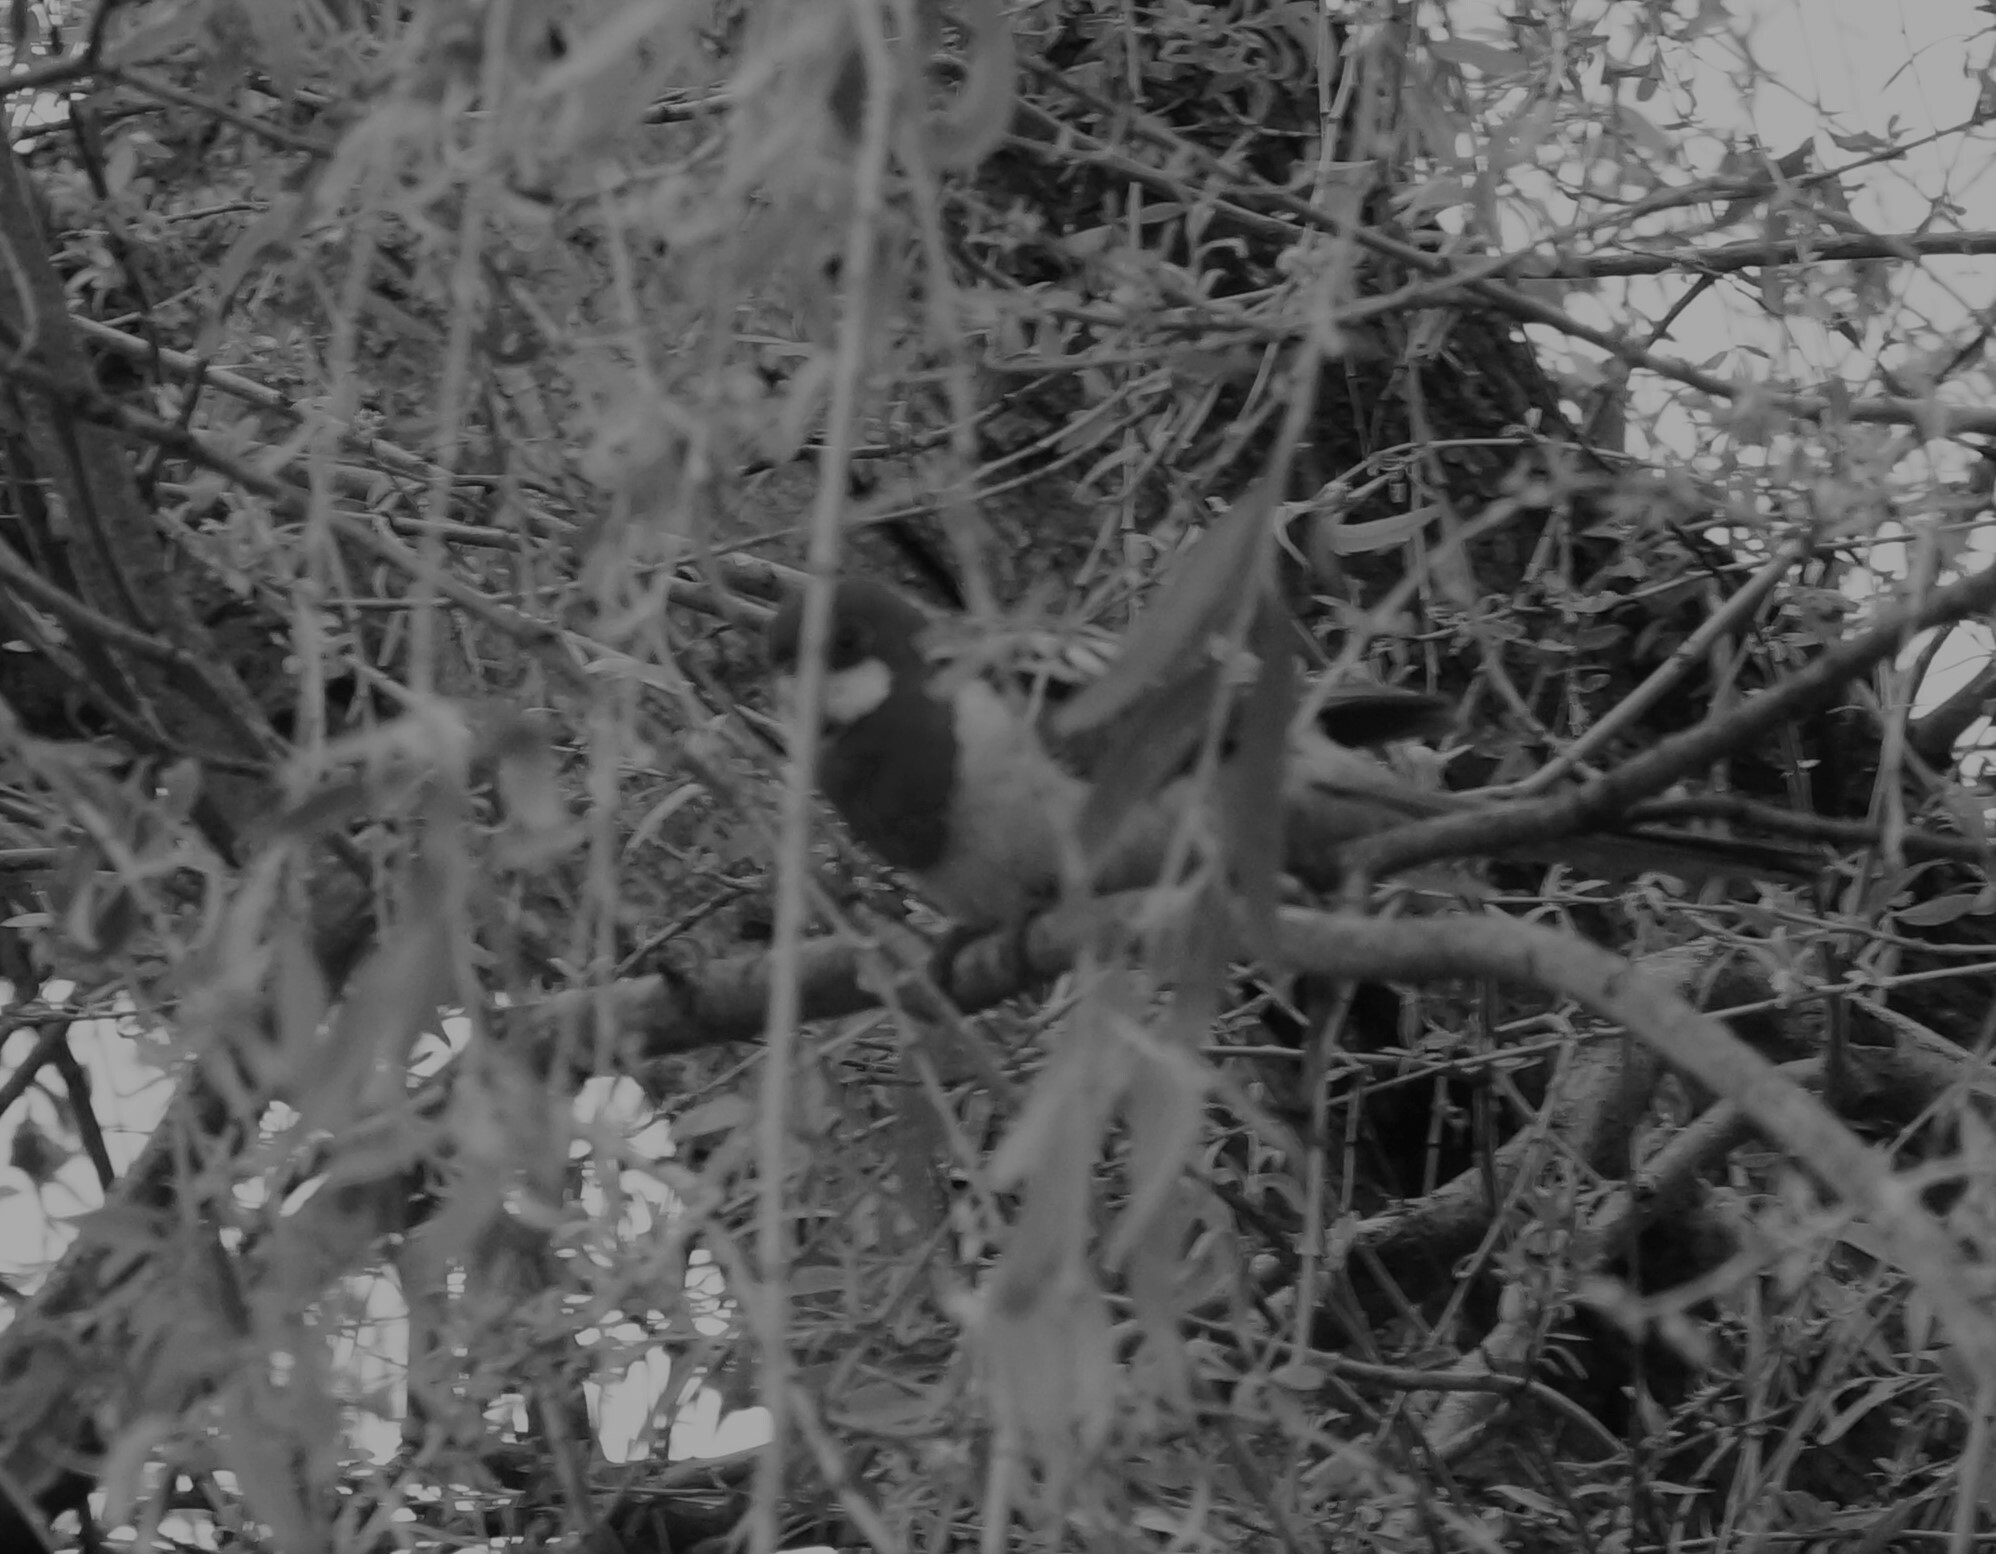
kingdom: Animalia
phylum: Chordata
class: Aves
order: Psittaciformes
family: Psittacidae
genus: Platycercus
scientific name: Platycercus eximius
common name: Eastern rosella
